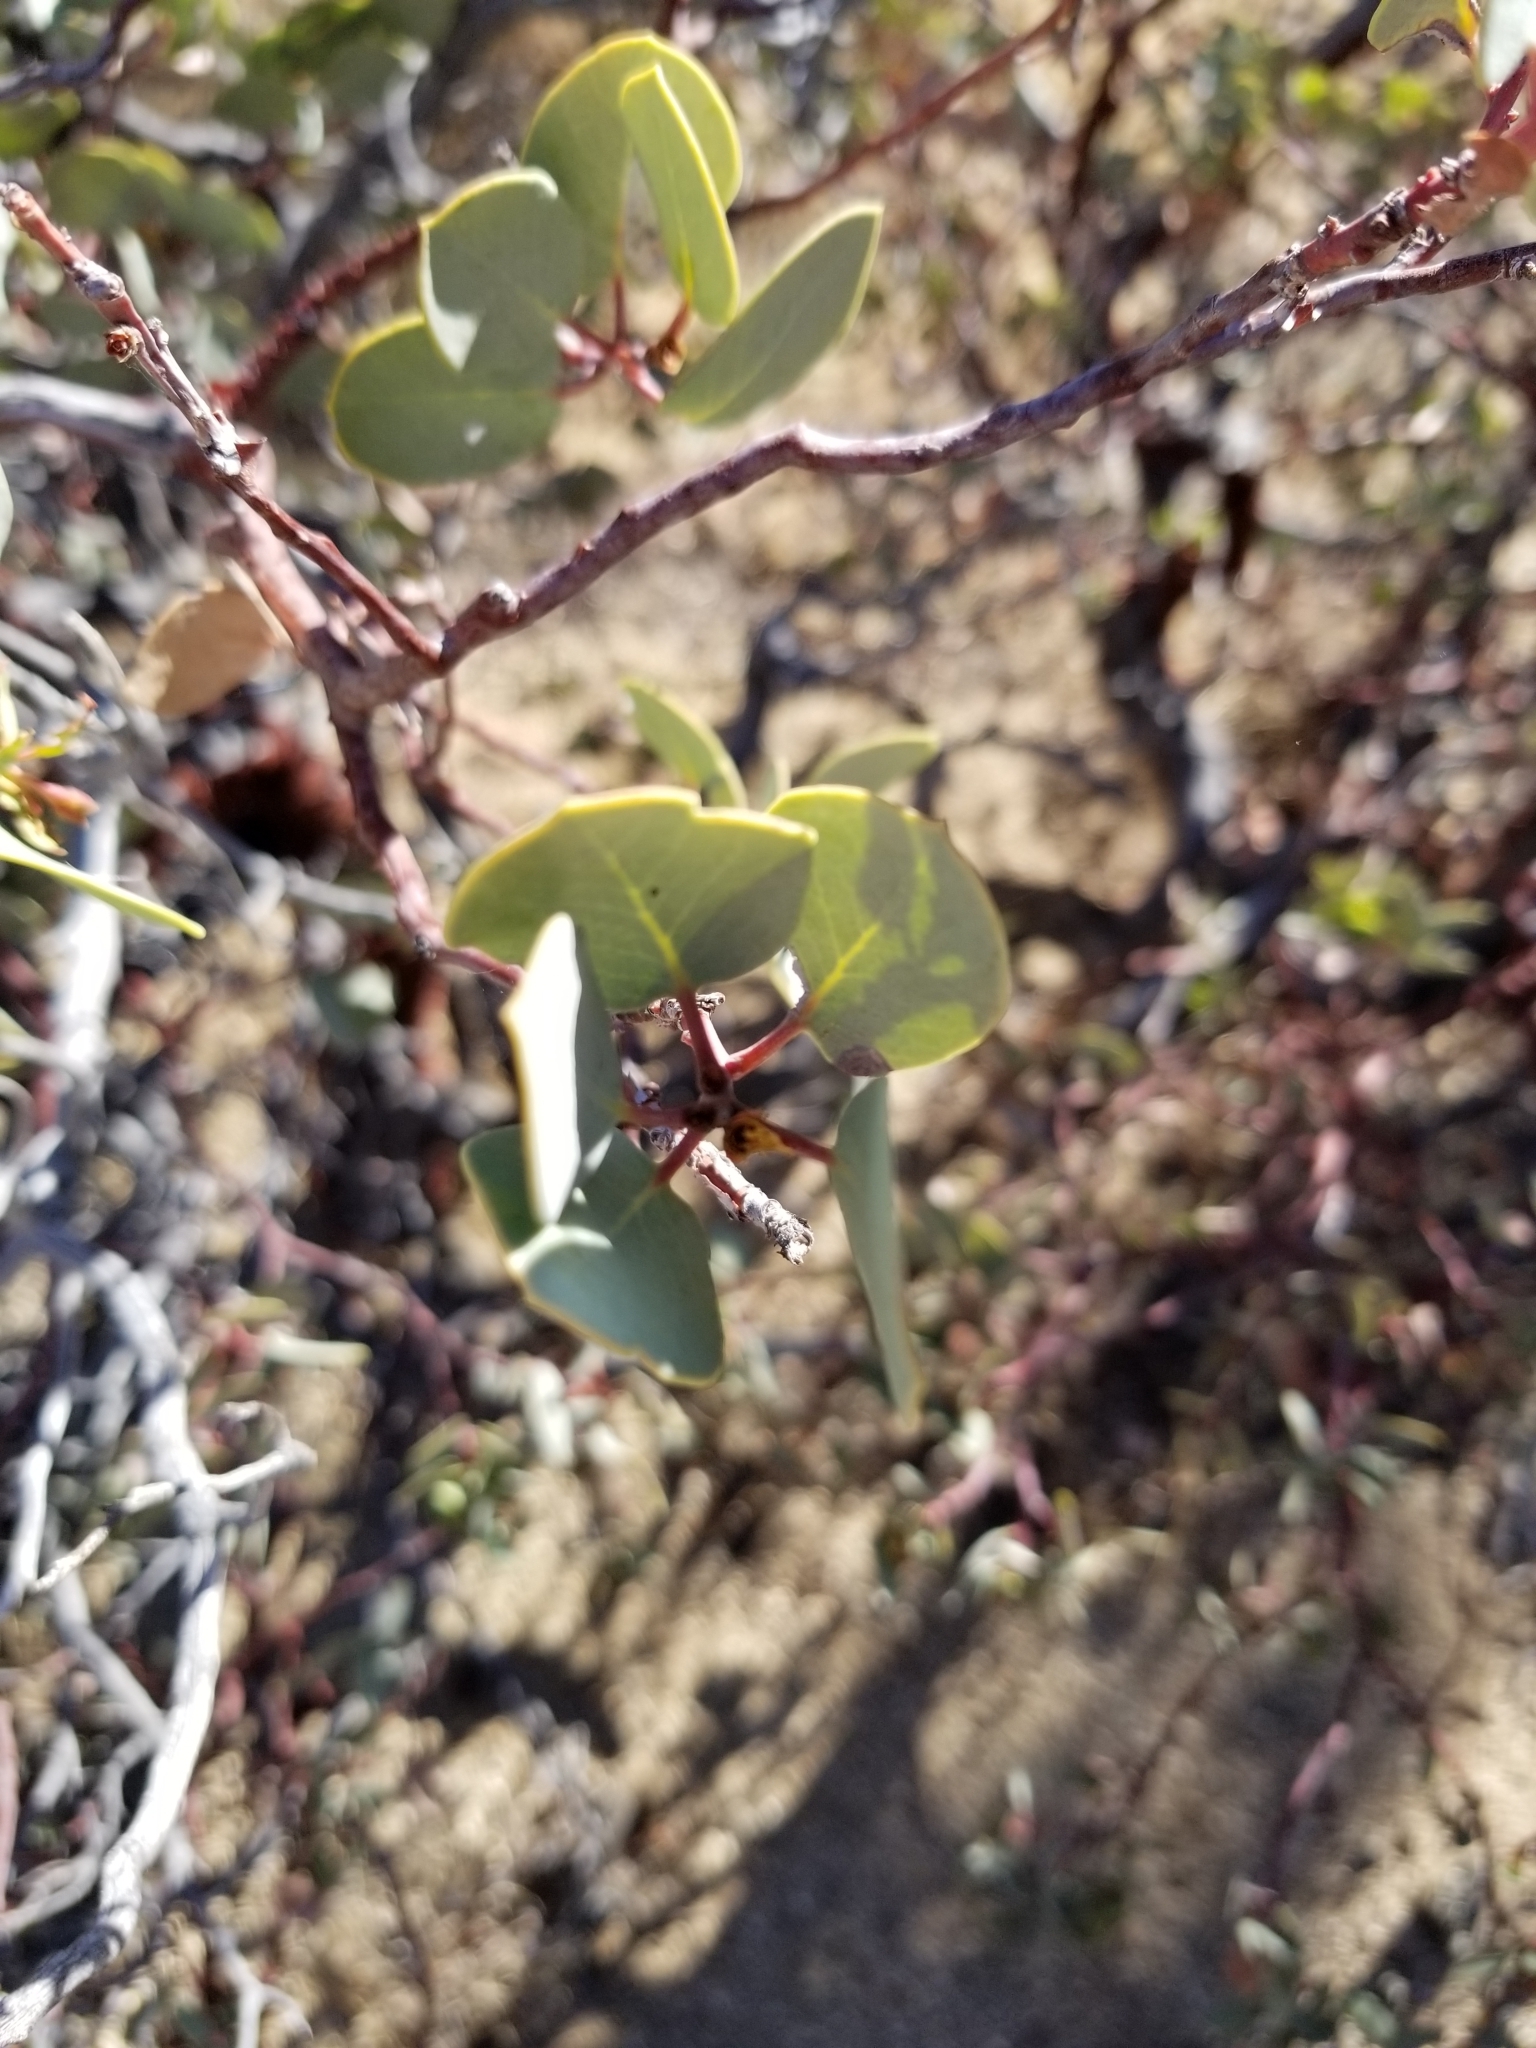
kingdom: Plantae
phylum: Tracheophyta
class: Magnoliopsida
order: Ericales
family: Ericaceae
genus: Arctostaphylos
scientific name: Arctostaphylos glauca
